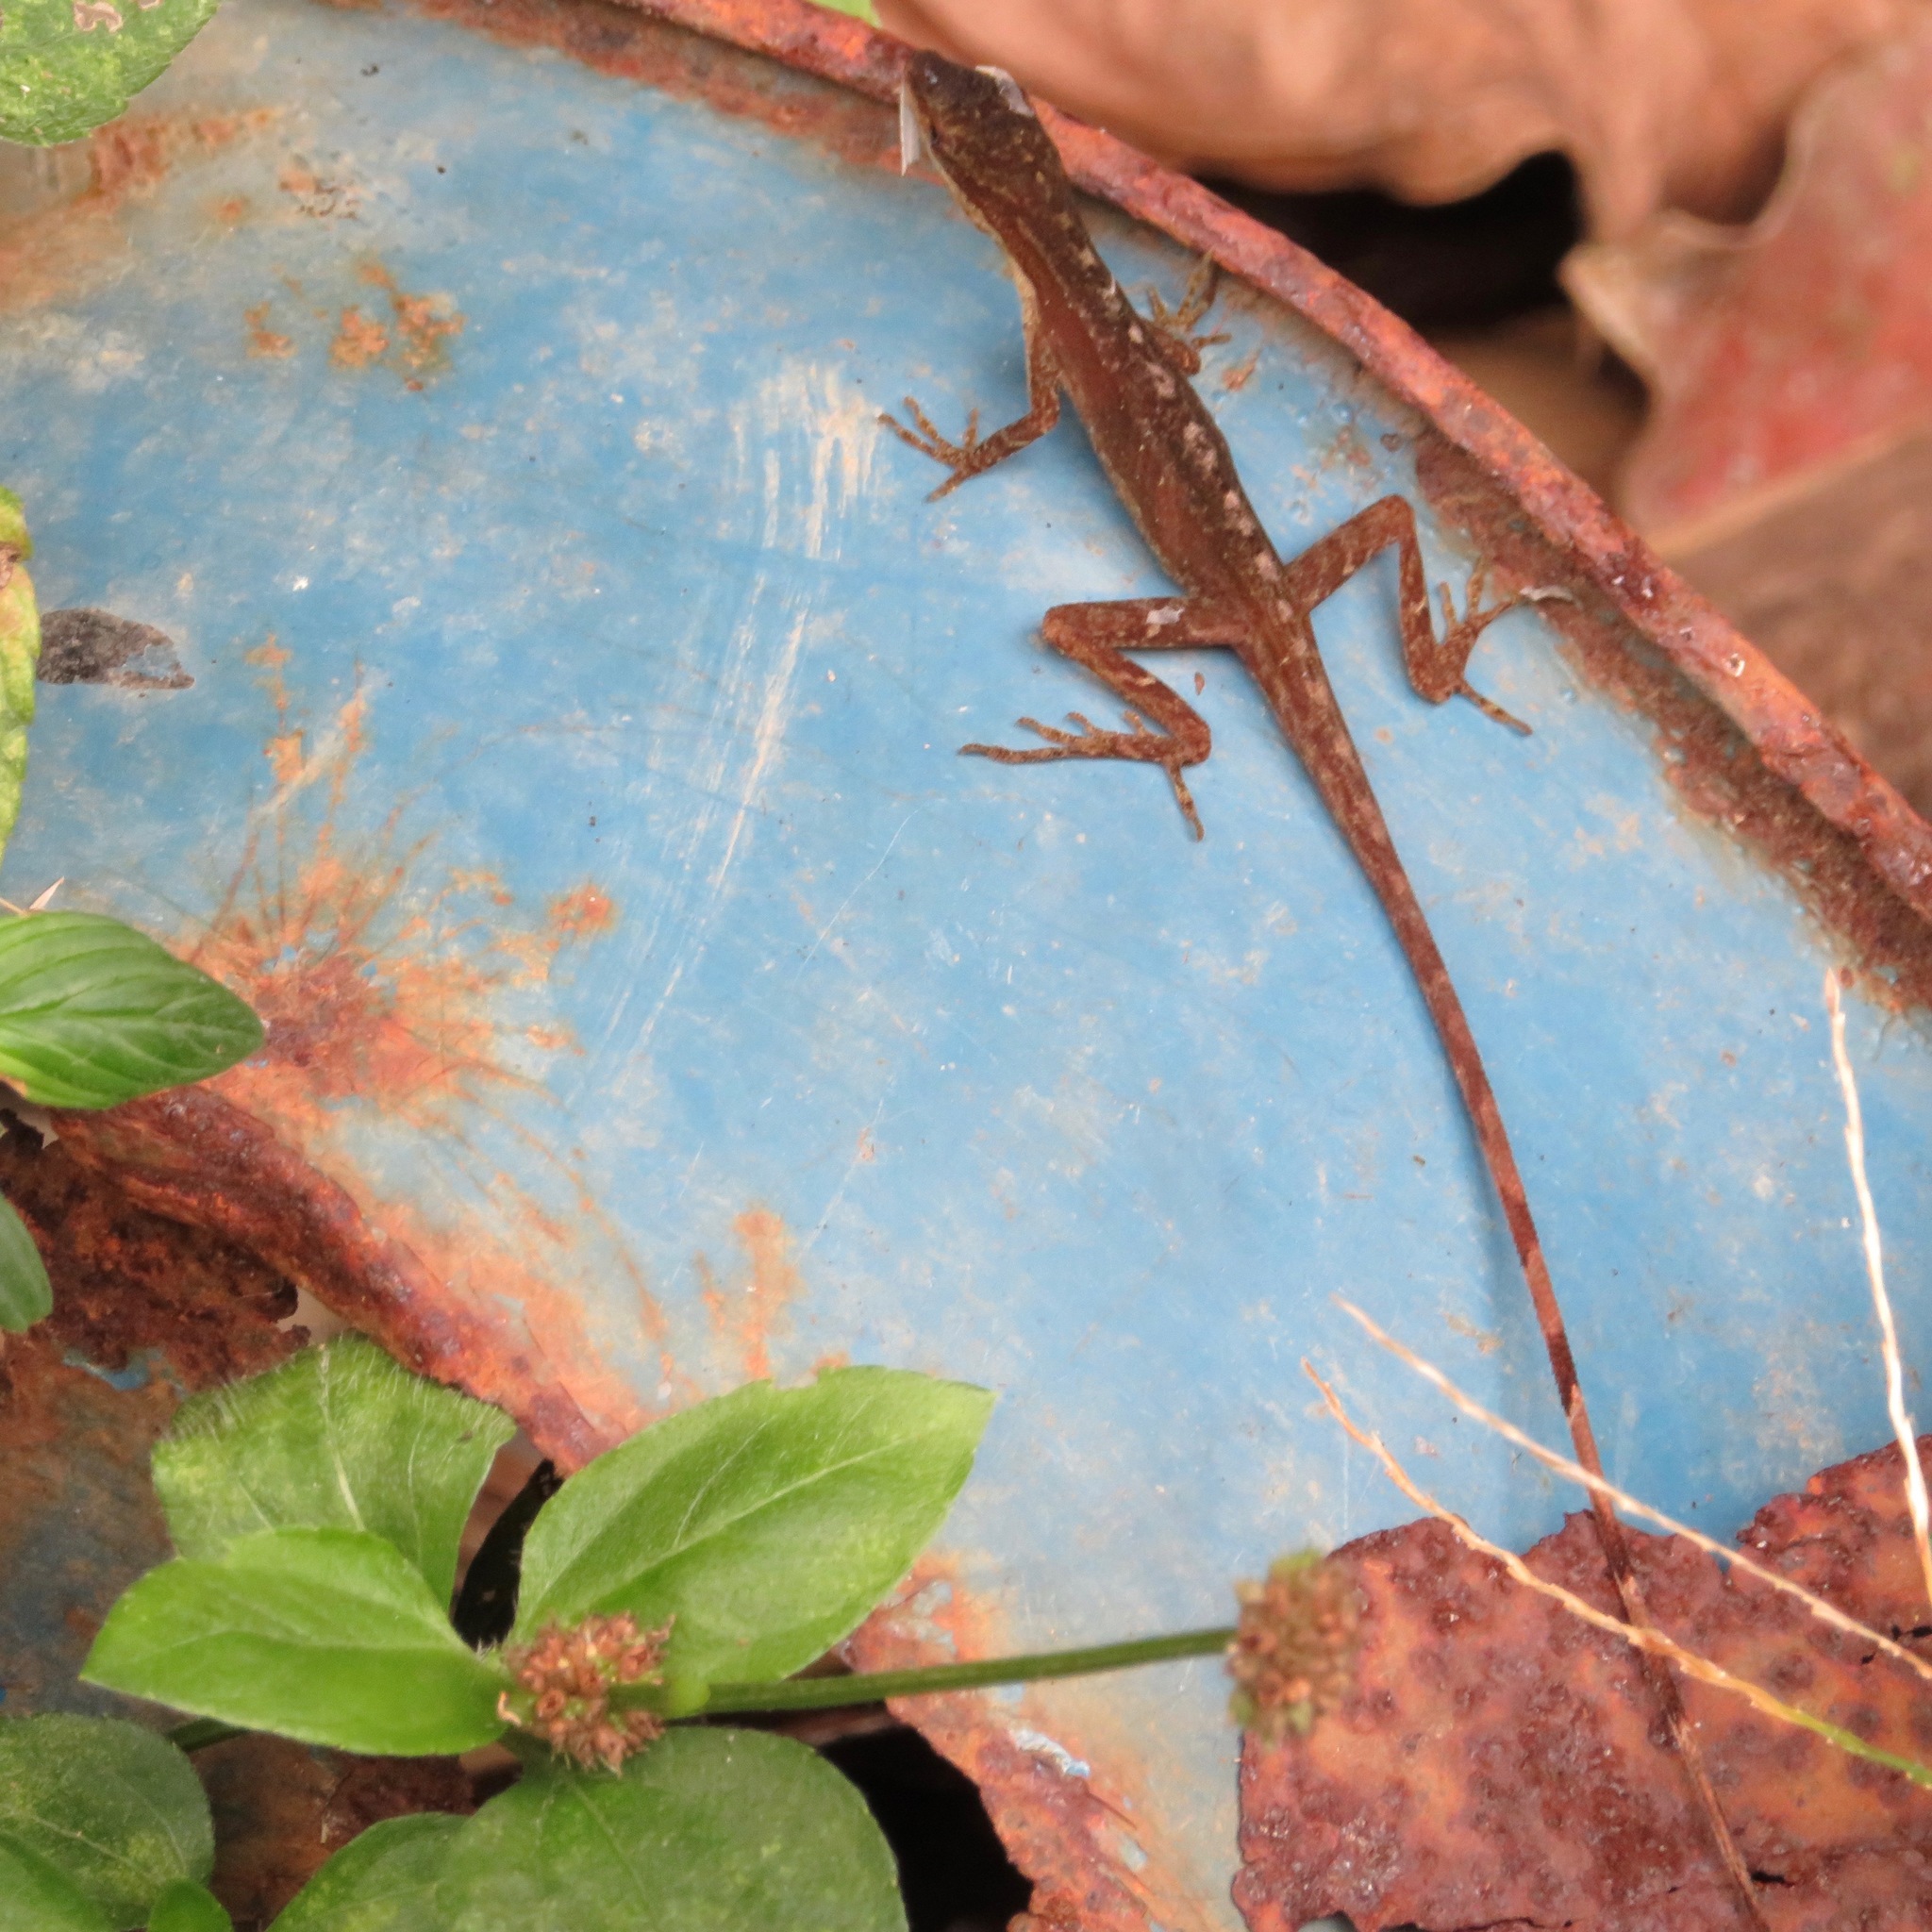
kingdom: Animalia
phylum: Chordata
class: Squamata
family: Dactyloidae
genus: Anolis
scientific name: Anolis limifrons
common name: Border anole
